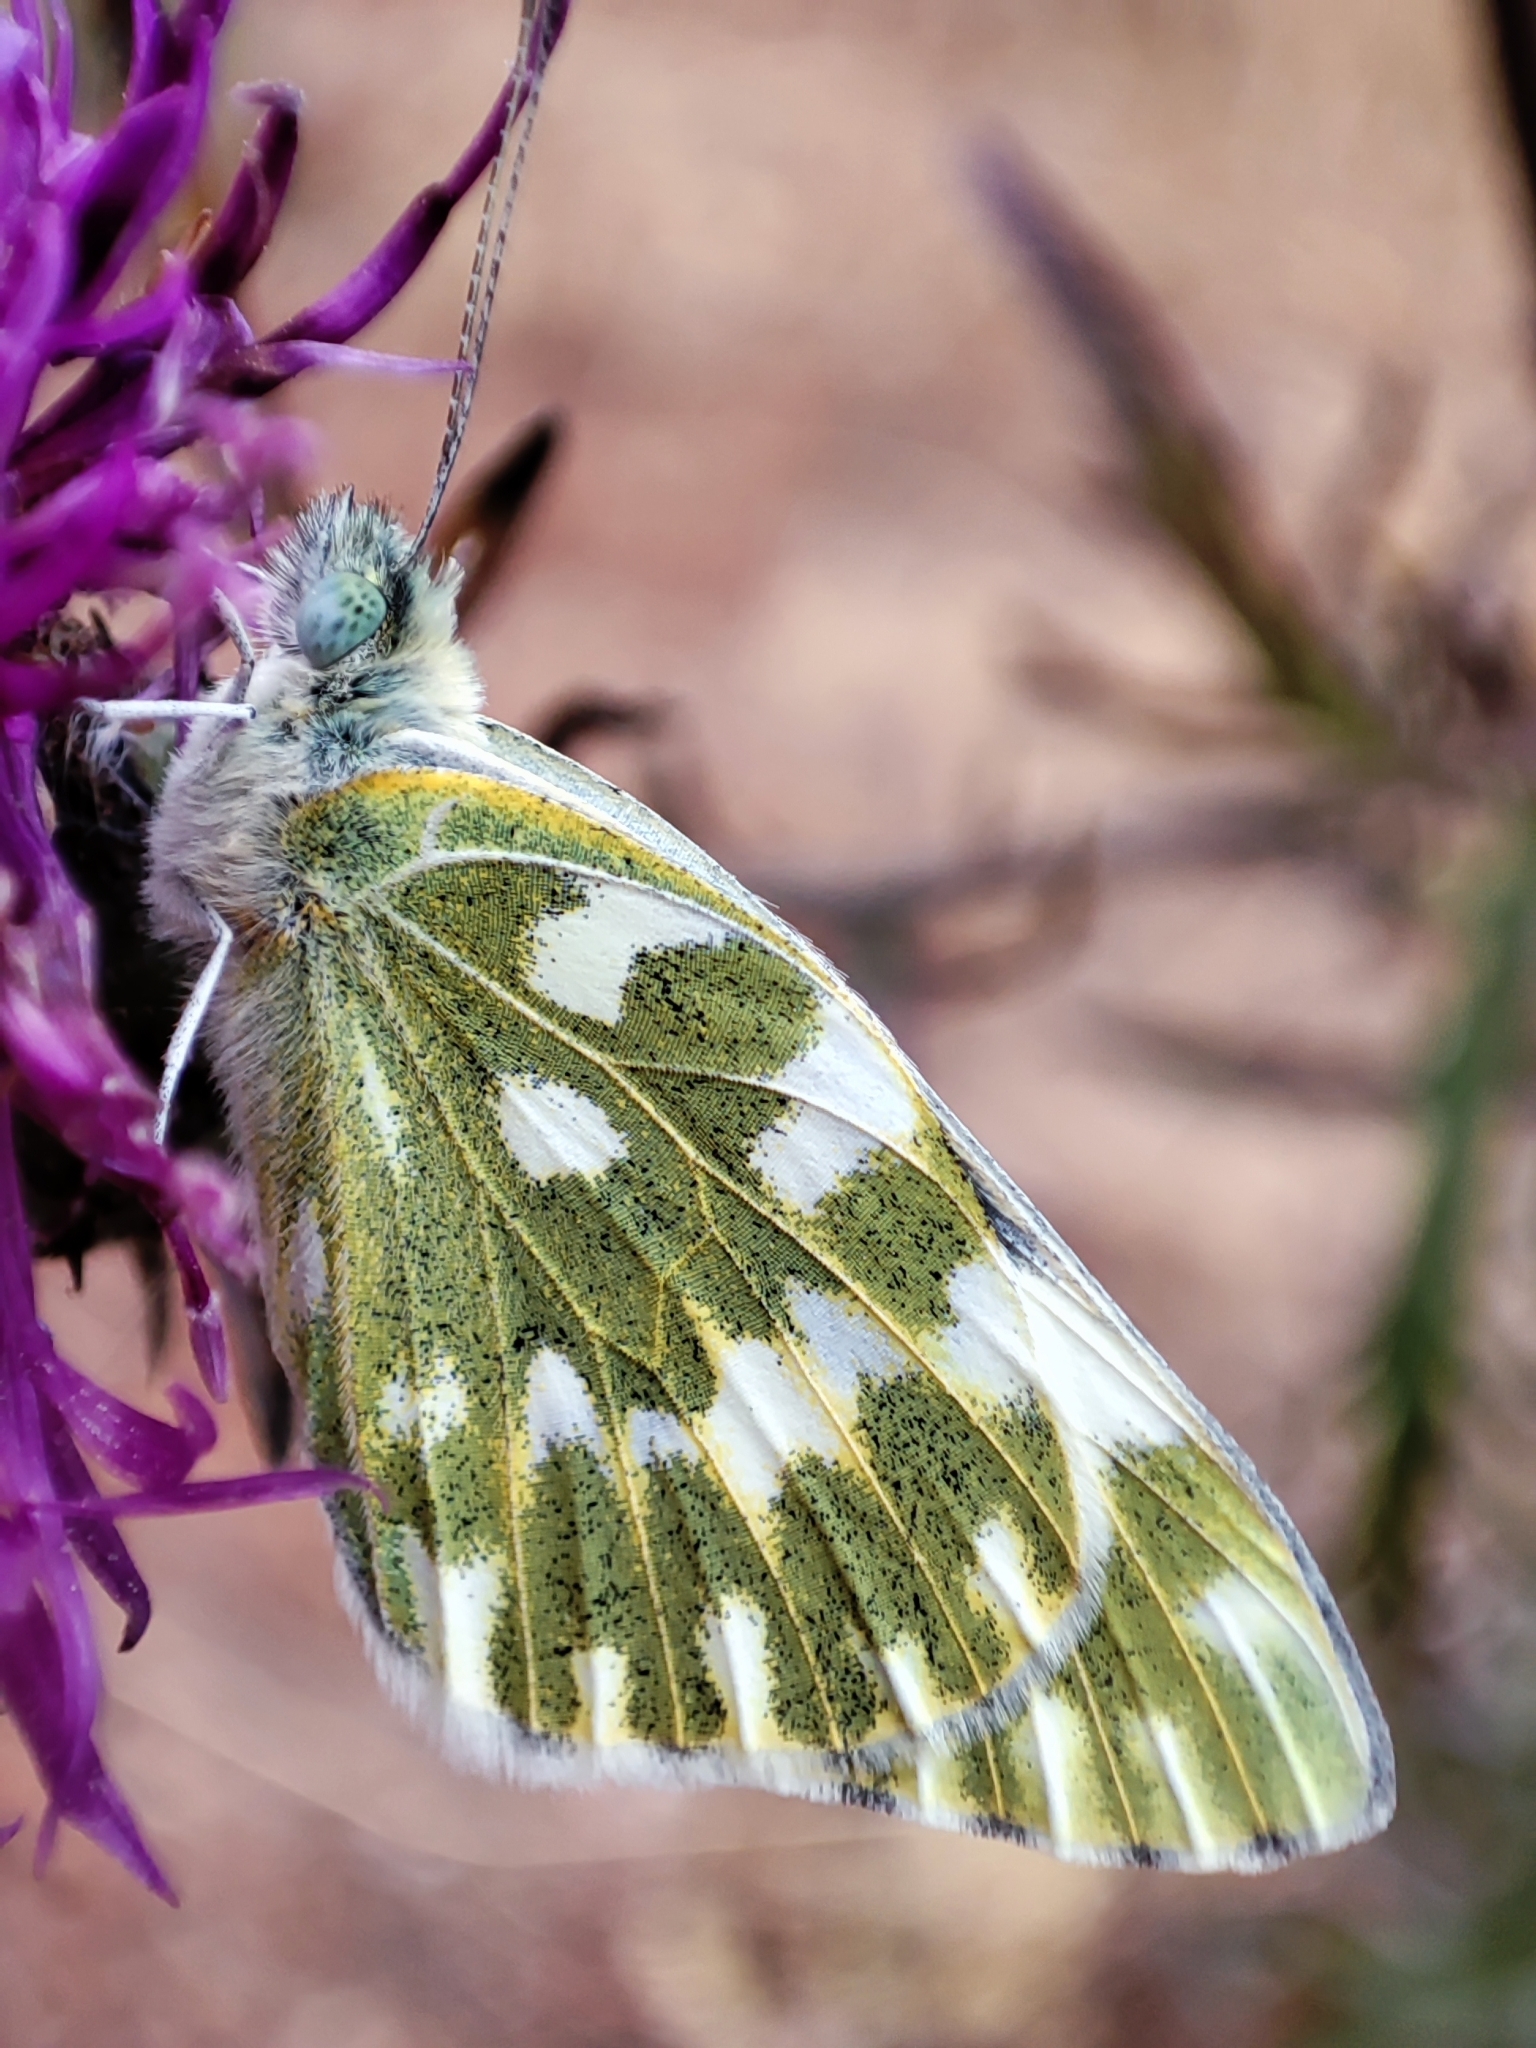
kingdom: Animalia
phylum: Arthropoda
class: Insecta
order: Lepidoptera
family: Pieridae
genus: Pontia
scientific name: Pontia edusa
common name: Eastern bath white
